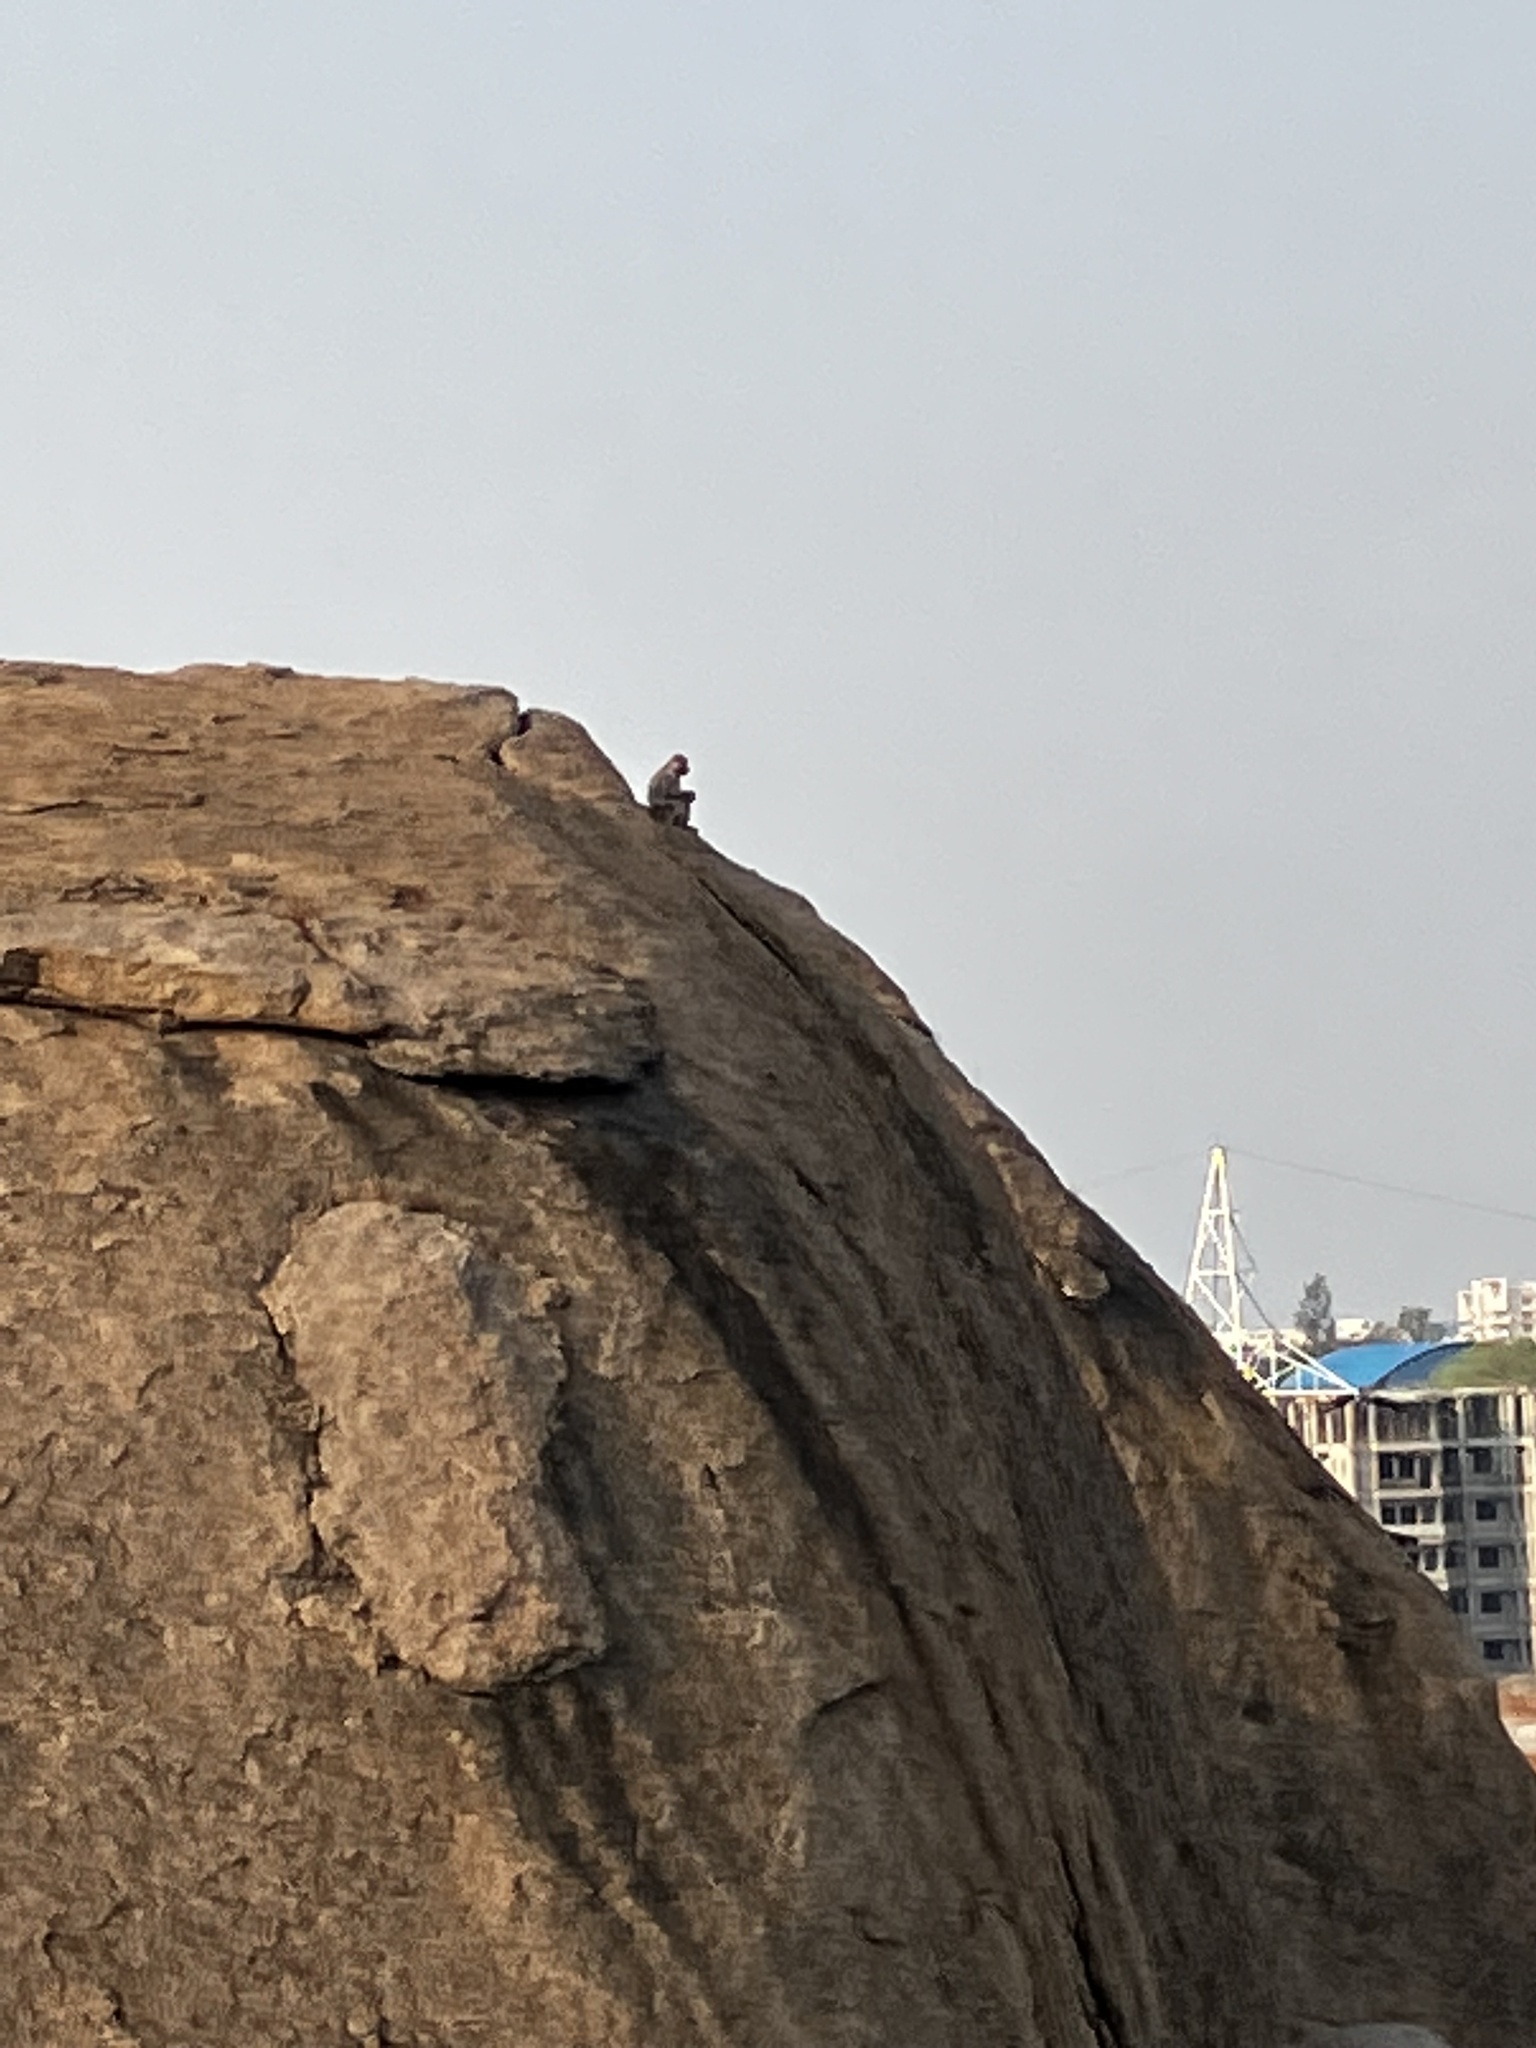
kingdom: Animalia
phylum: Chordata
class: Mammalia
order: Primates
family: Cercopithecidae
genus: Macaca
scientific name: Macaca mulatta
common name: Rhesus monkey
